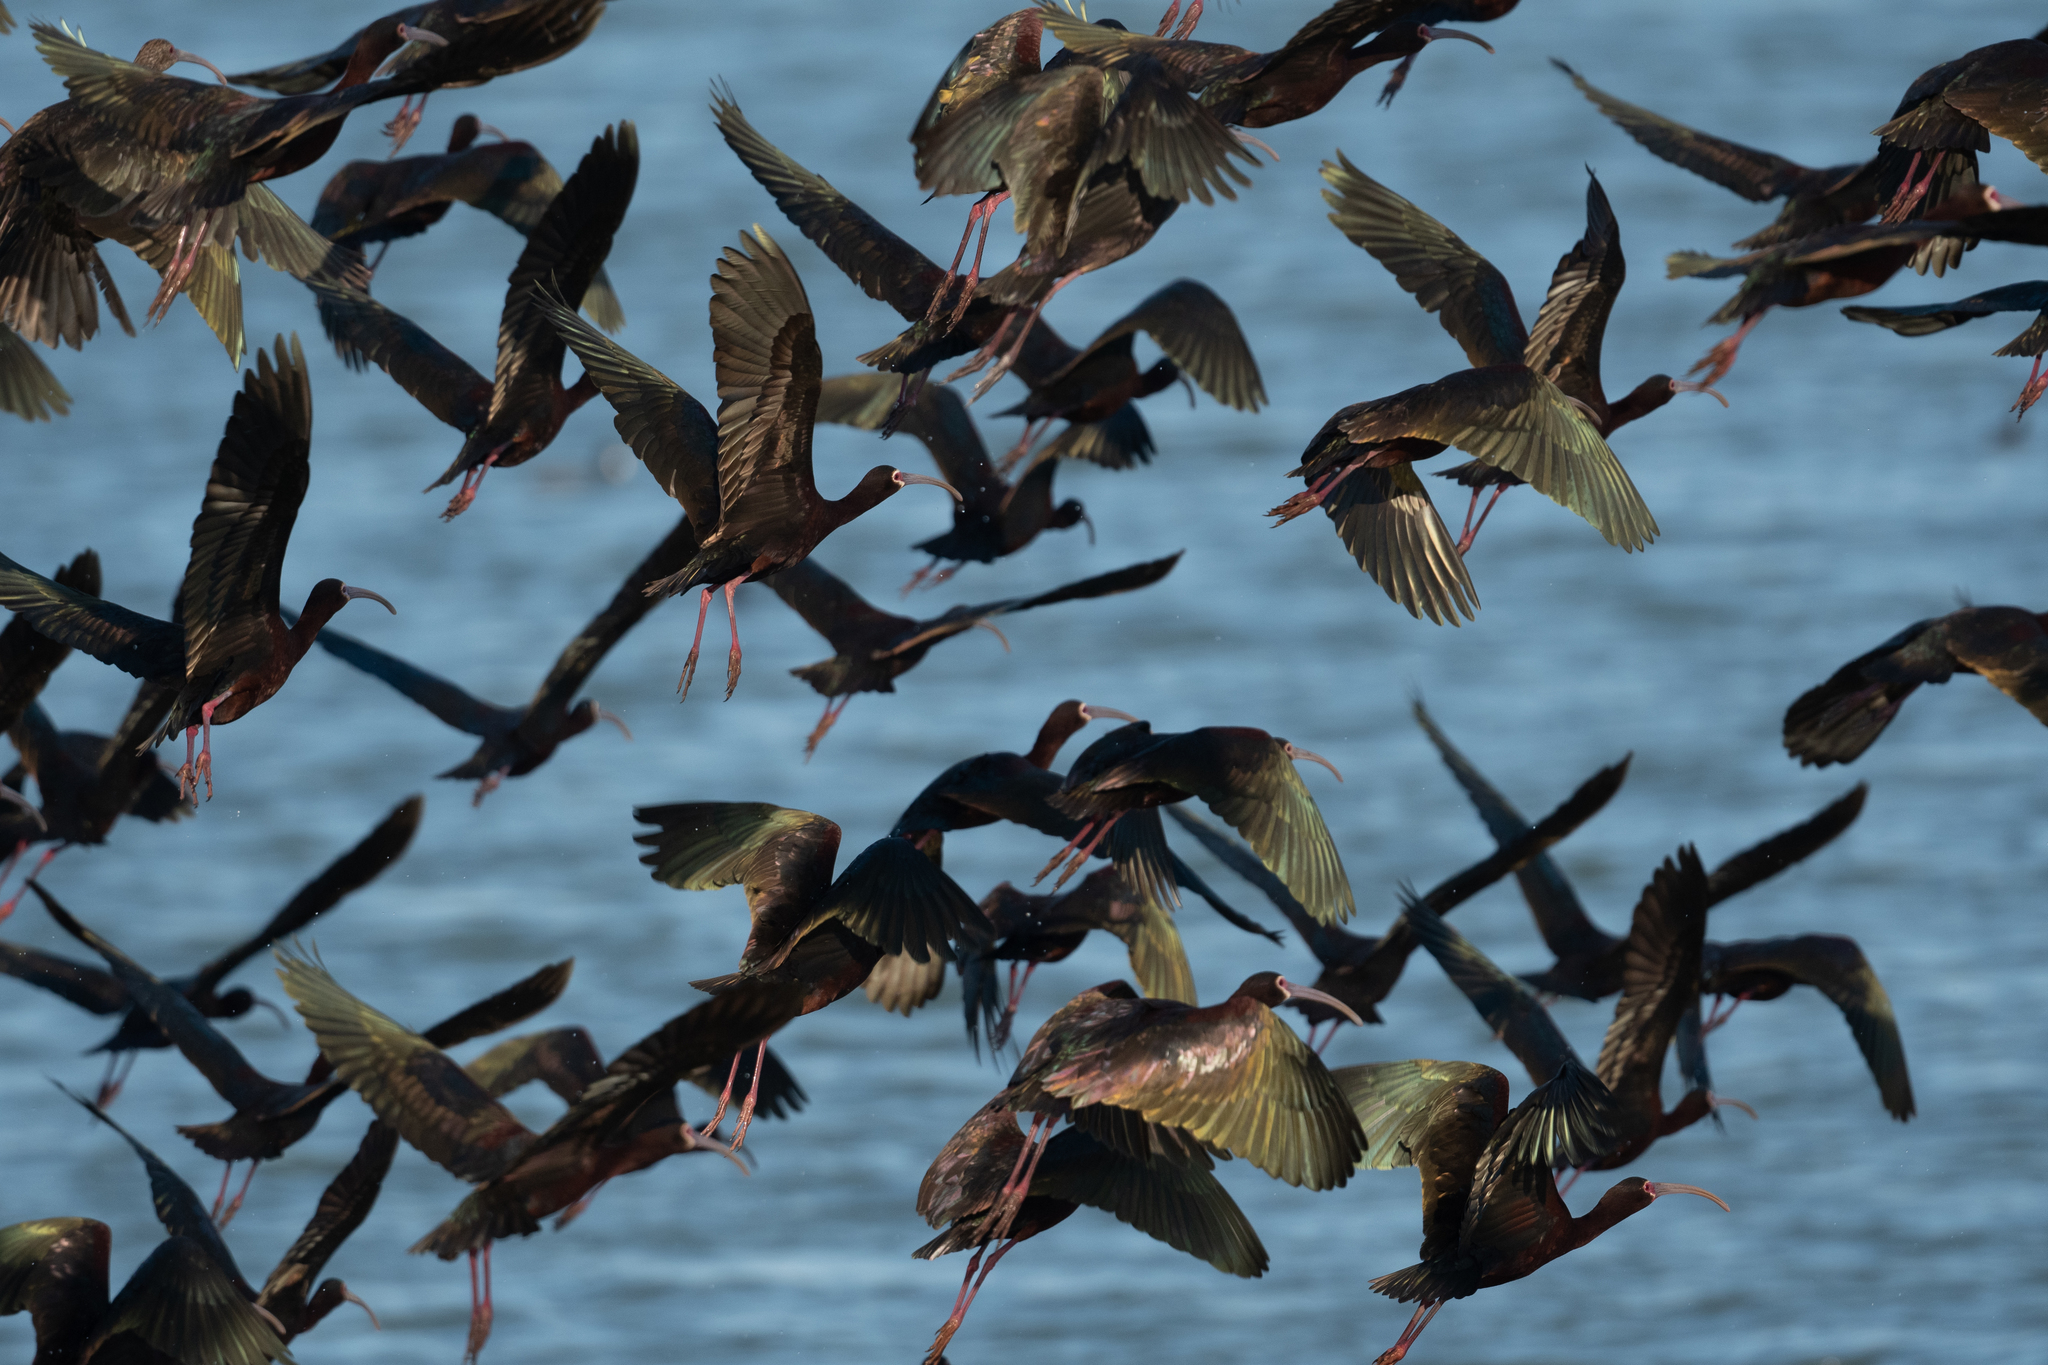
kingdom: Animalia
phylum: Chordata
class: Aves
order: Pelecaniformes
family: Threskiornithidae
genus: Plegadis
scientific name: Plegadis chihi
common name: White-faced ibis
